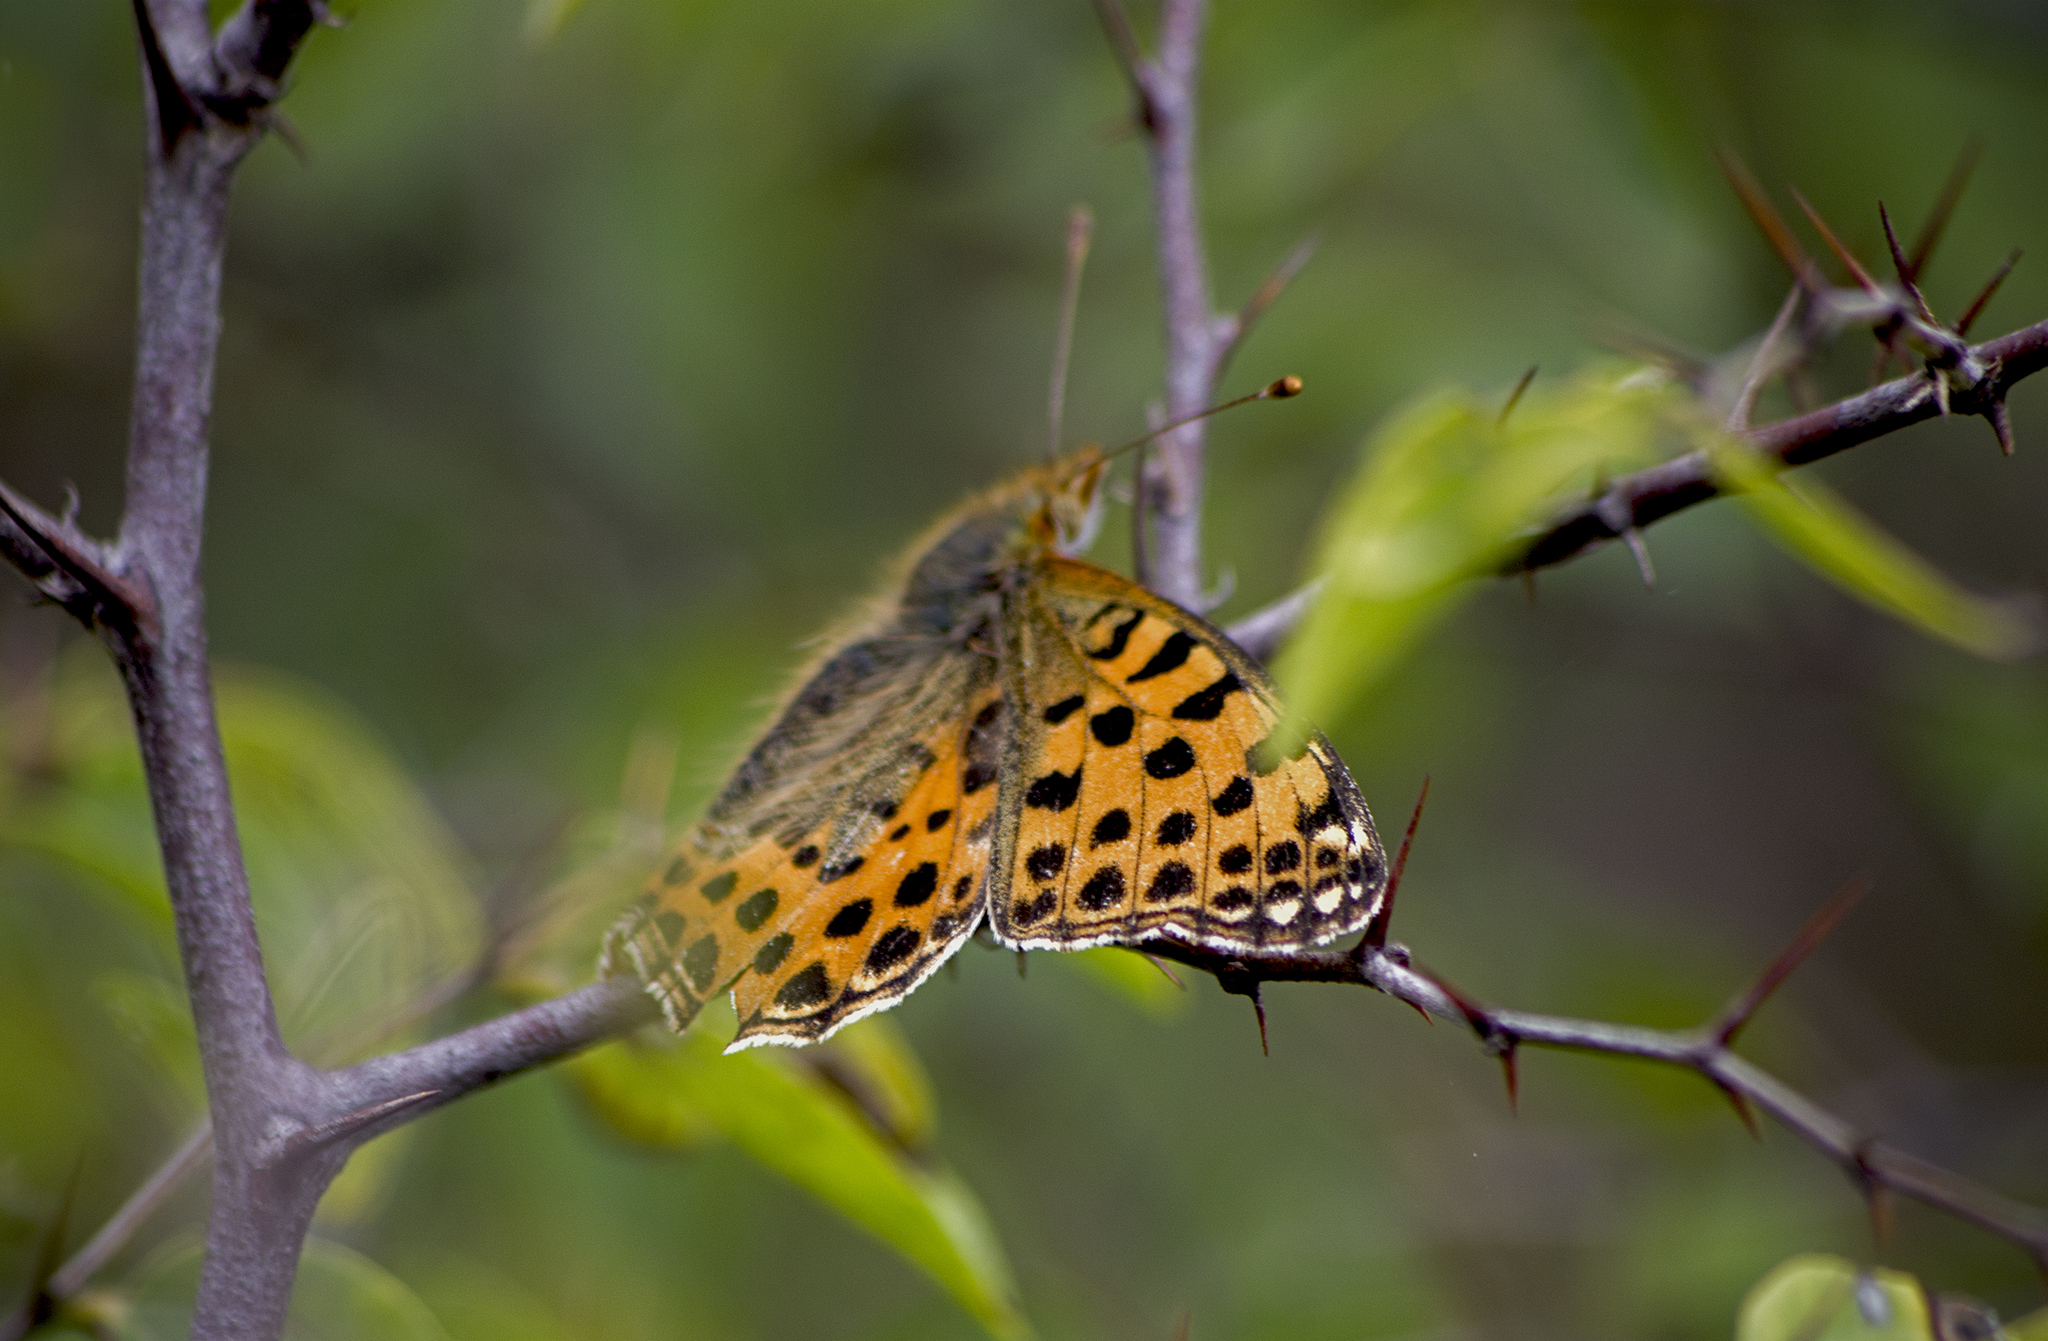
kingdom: Animalia
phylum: Arthropoda
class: Insecta
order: Lepidoptera
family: Nymphalidae
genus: Issoria
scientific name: Issoria lathonia
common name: Queen of spain fritillary
